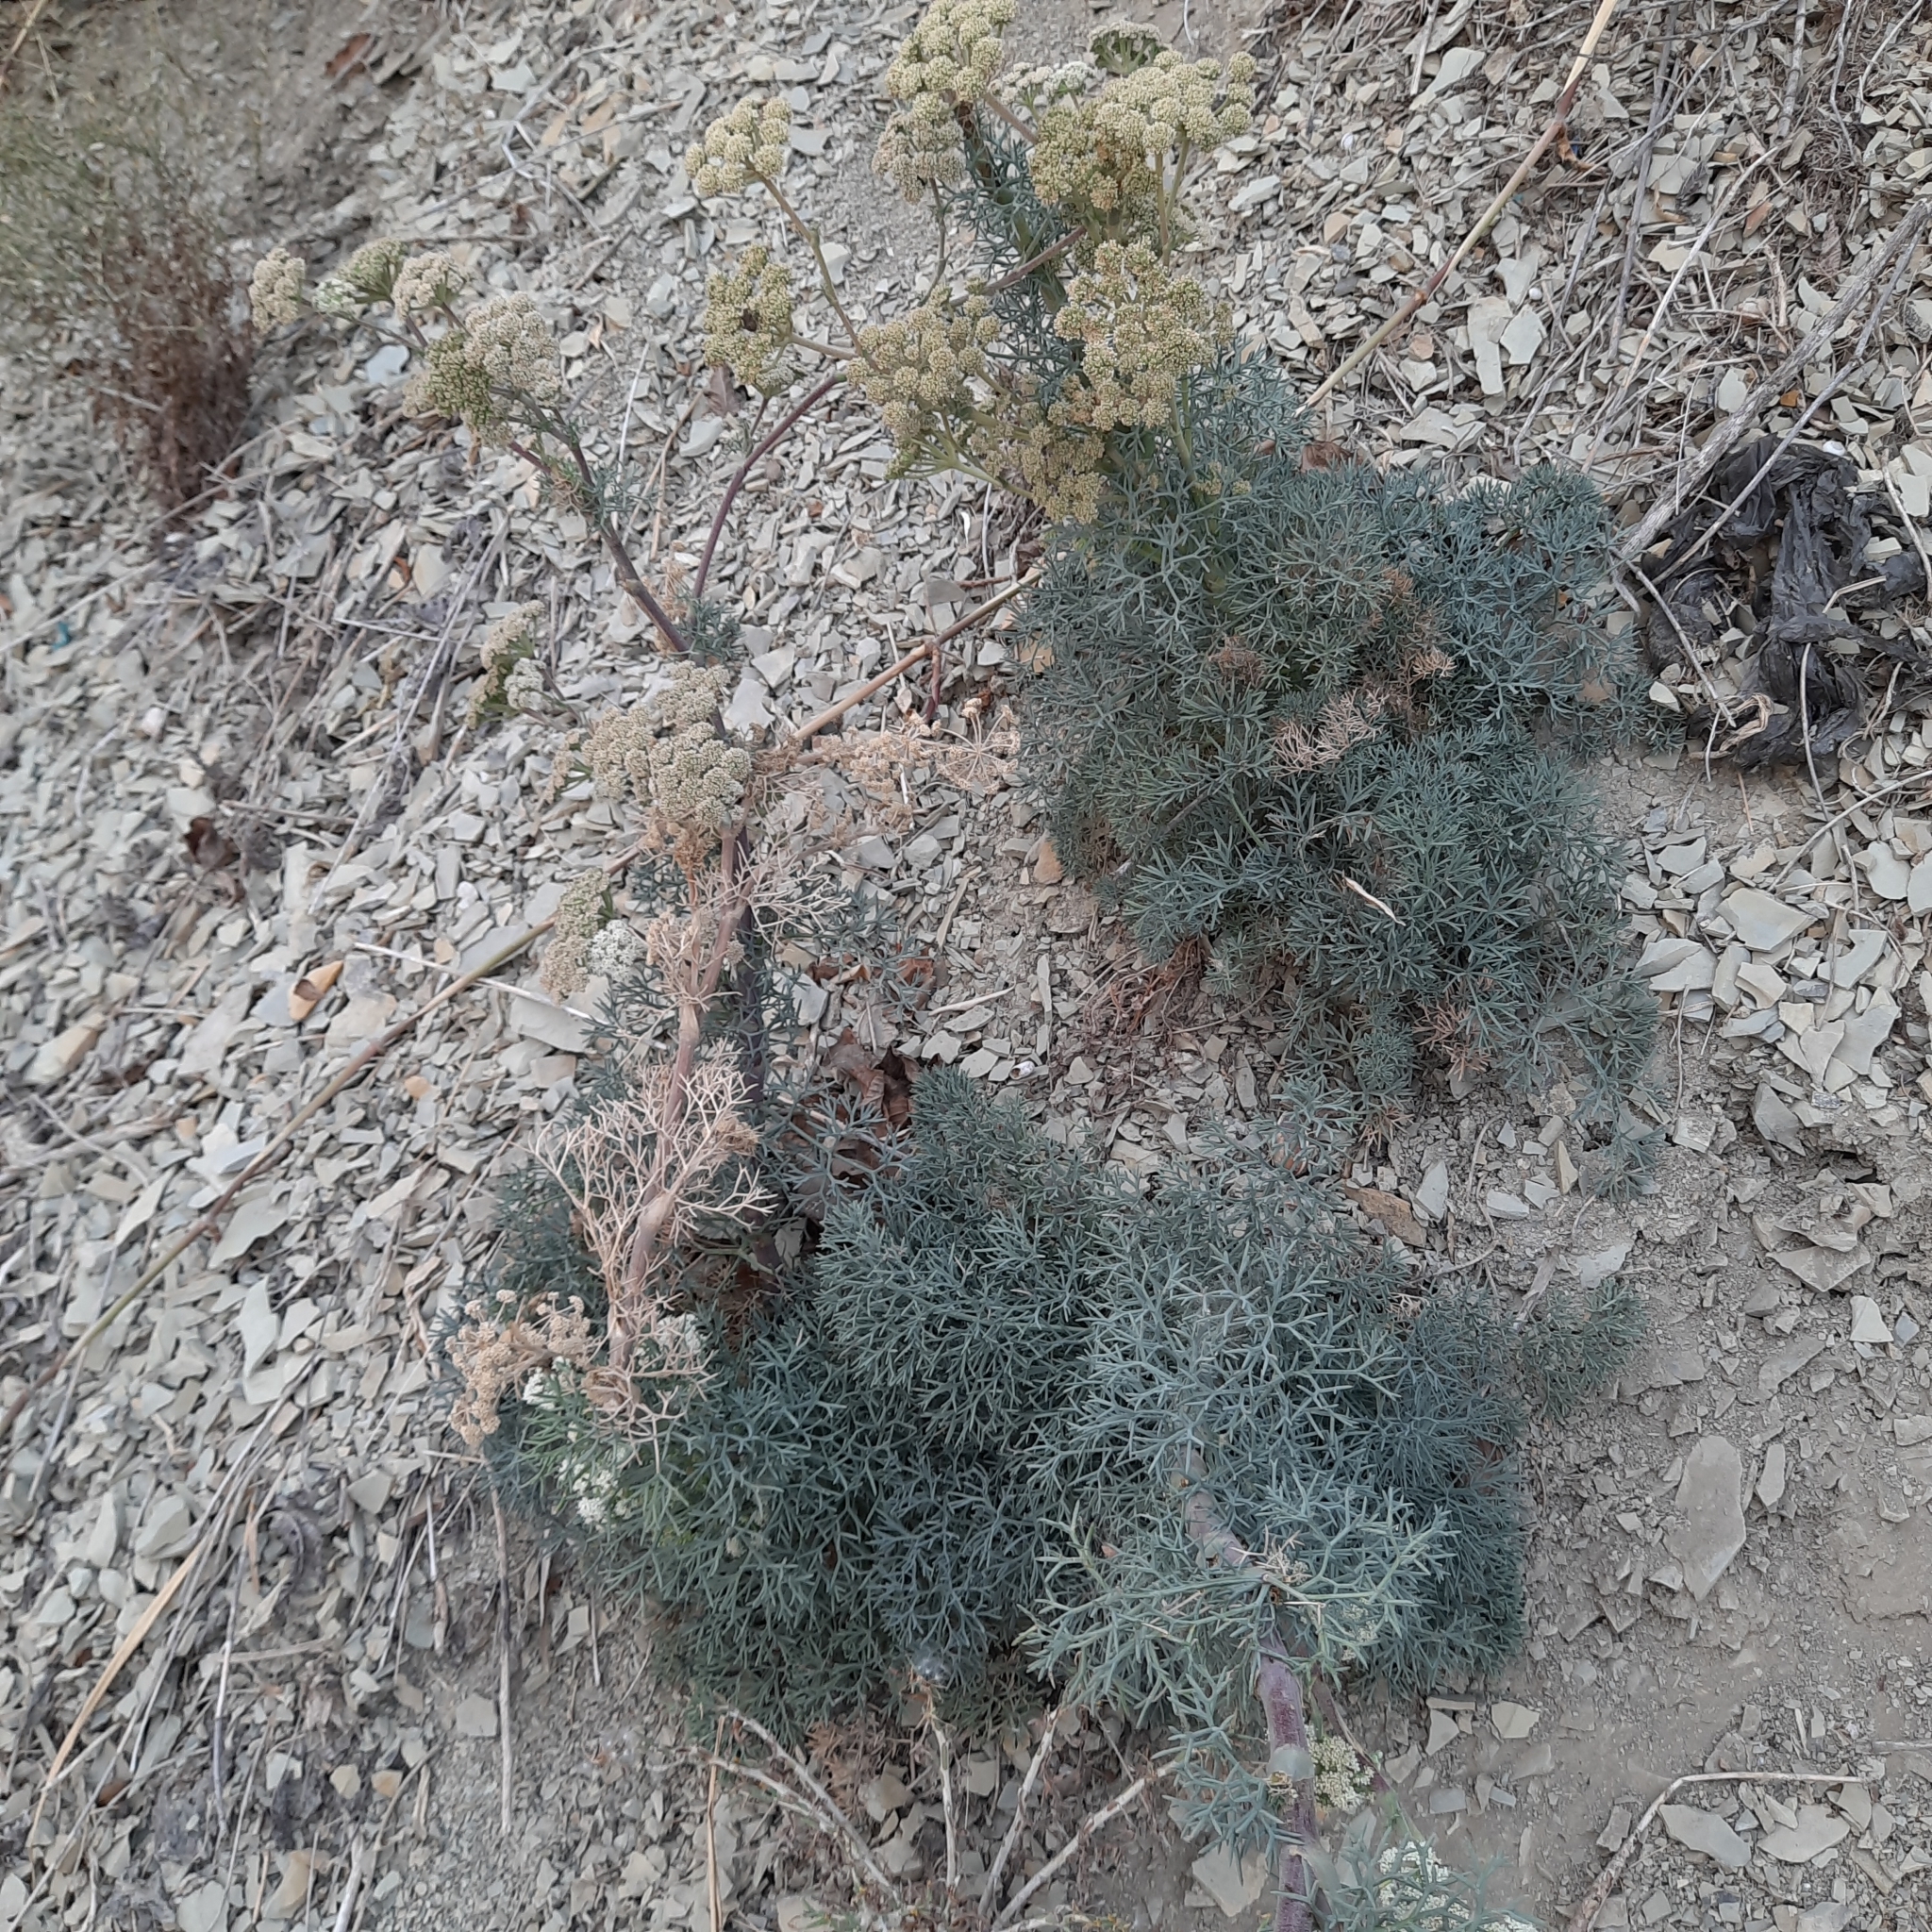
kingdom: Plantae
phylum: Tracheophyta
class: Magnoliopsida
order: Apiales
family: Apiaceae
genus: Seseli
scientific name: Seseli ponticum
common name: Pontic seseli
